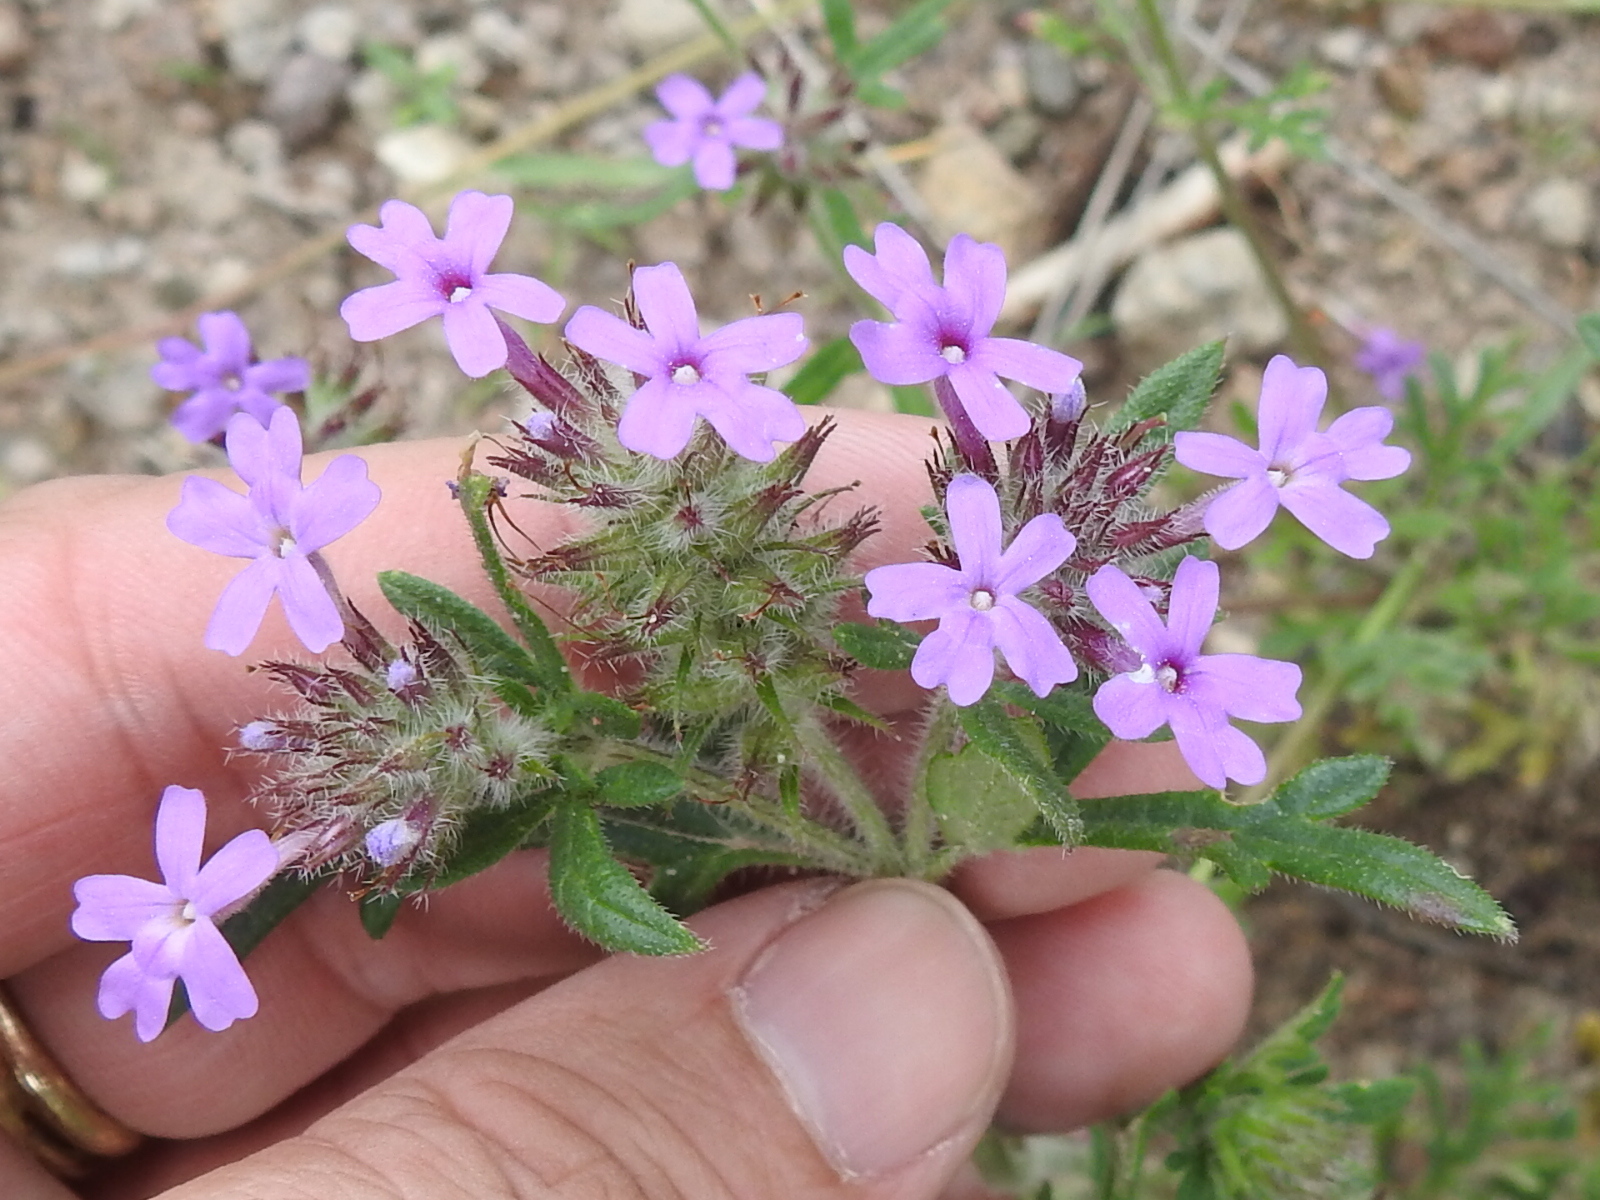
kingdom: Plantae
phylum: Tracheophyta
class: Magnoliopsida
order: Lamiales
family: Verbenaceae
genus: Verbena
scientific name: Verbena chiricahensis
